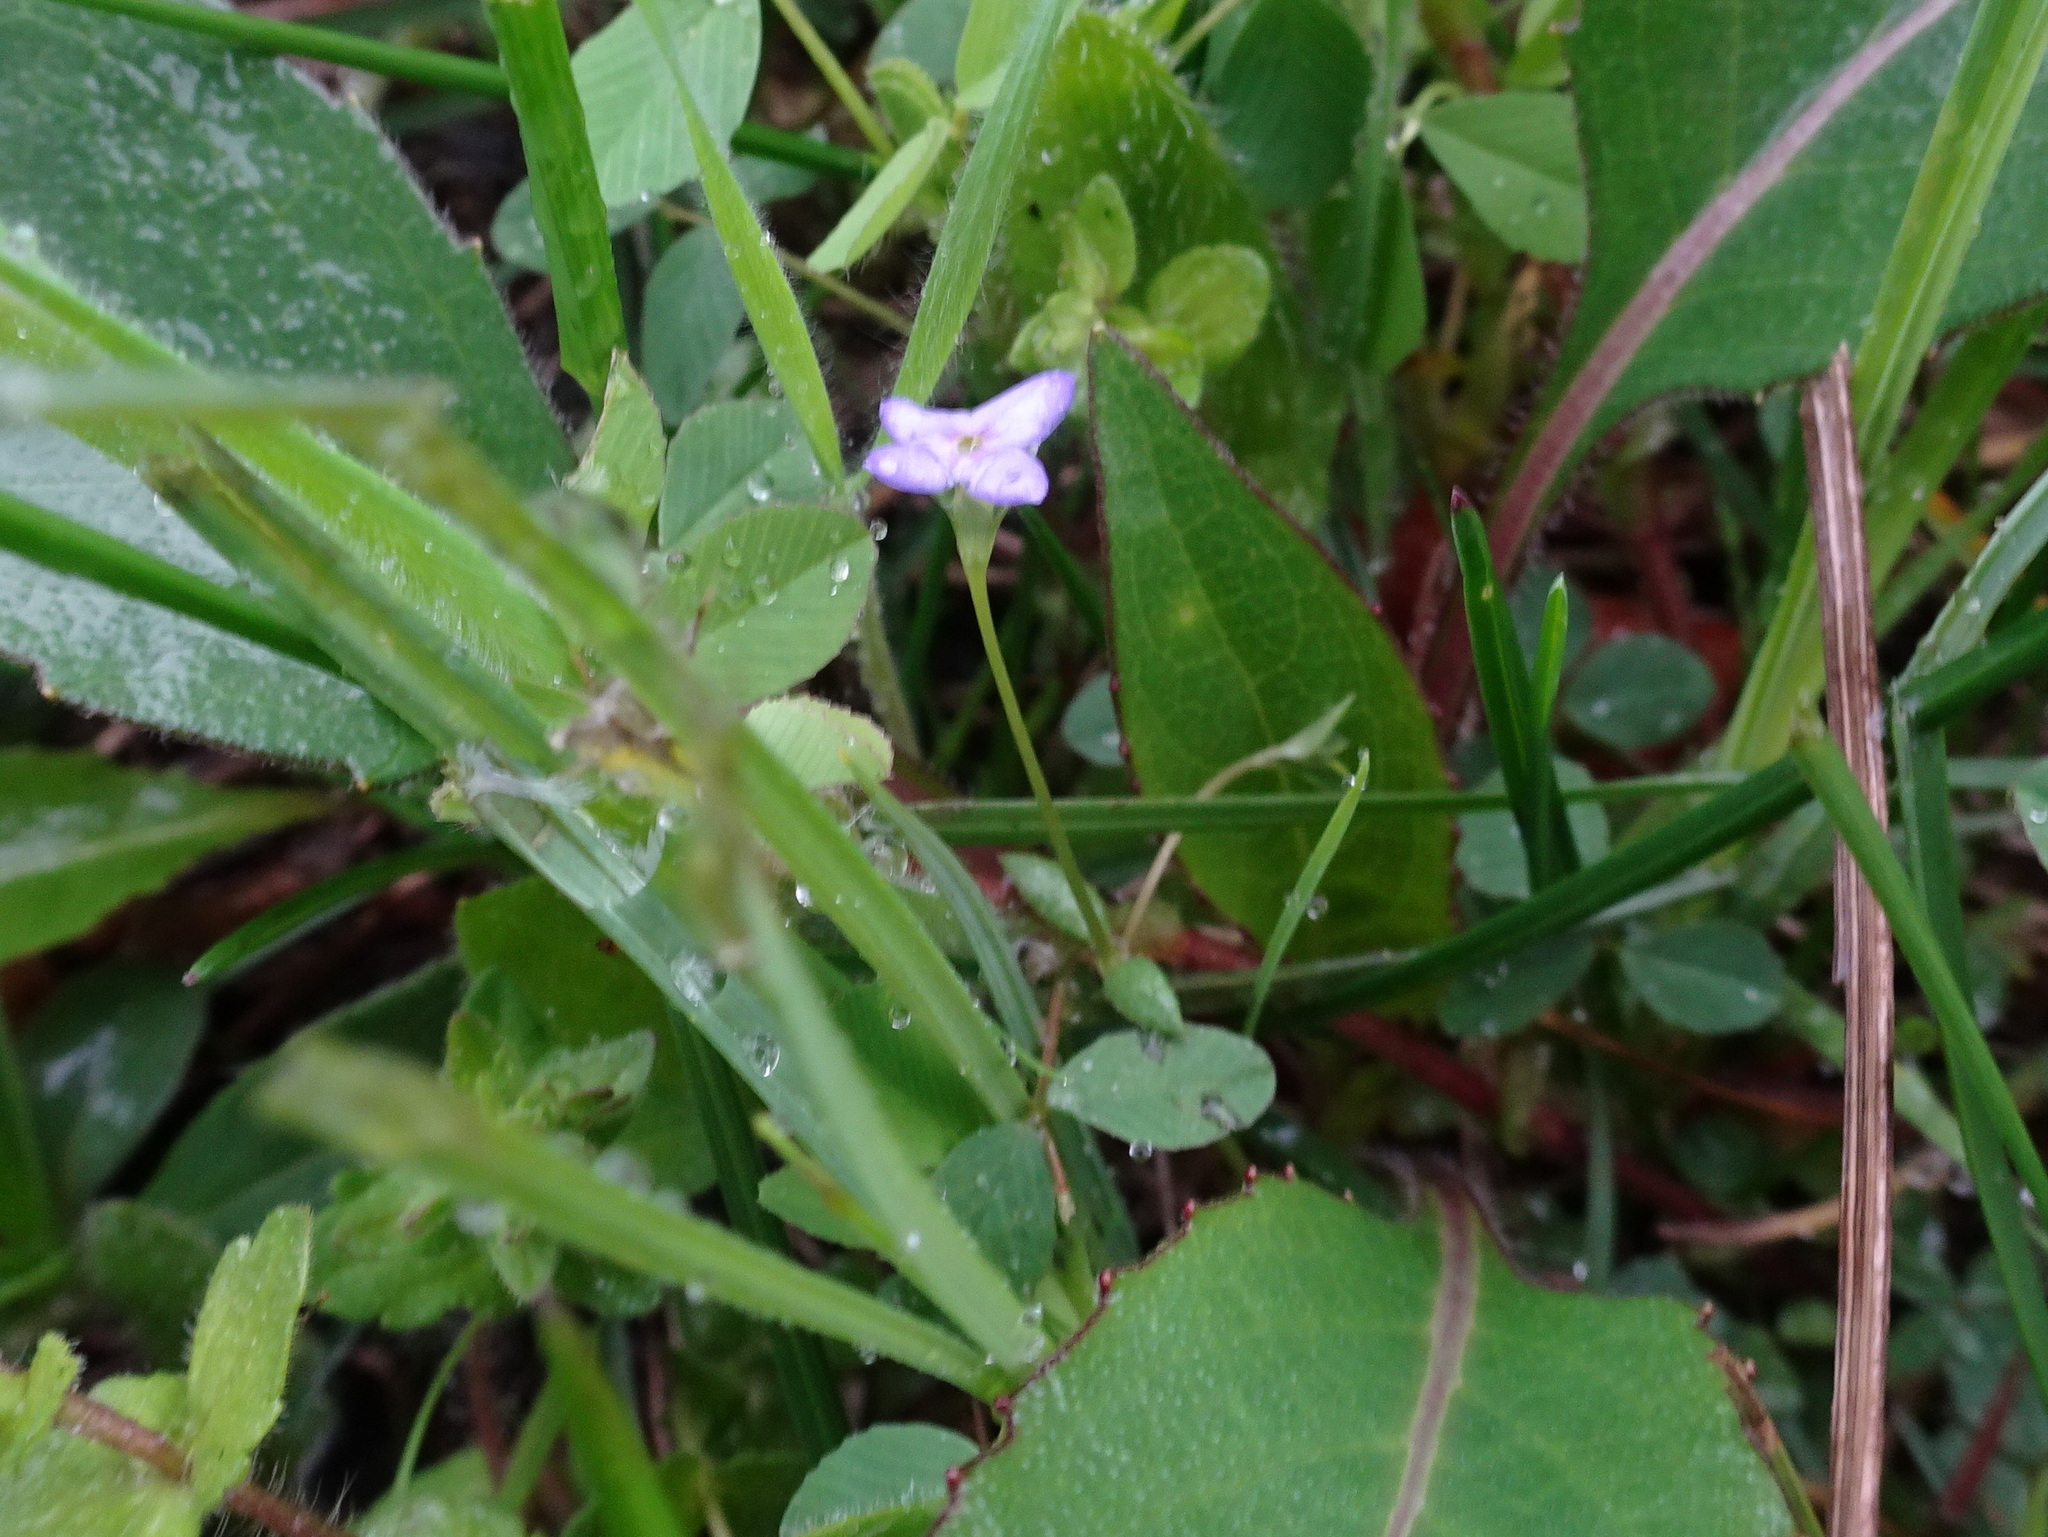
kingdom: Plantae
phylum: Tracheophyta
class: Magnoliopsida
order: Gentianales
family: Rubiaceae
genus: Houstonia
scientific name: Houstonia pusilla
